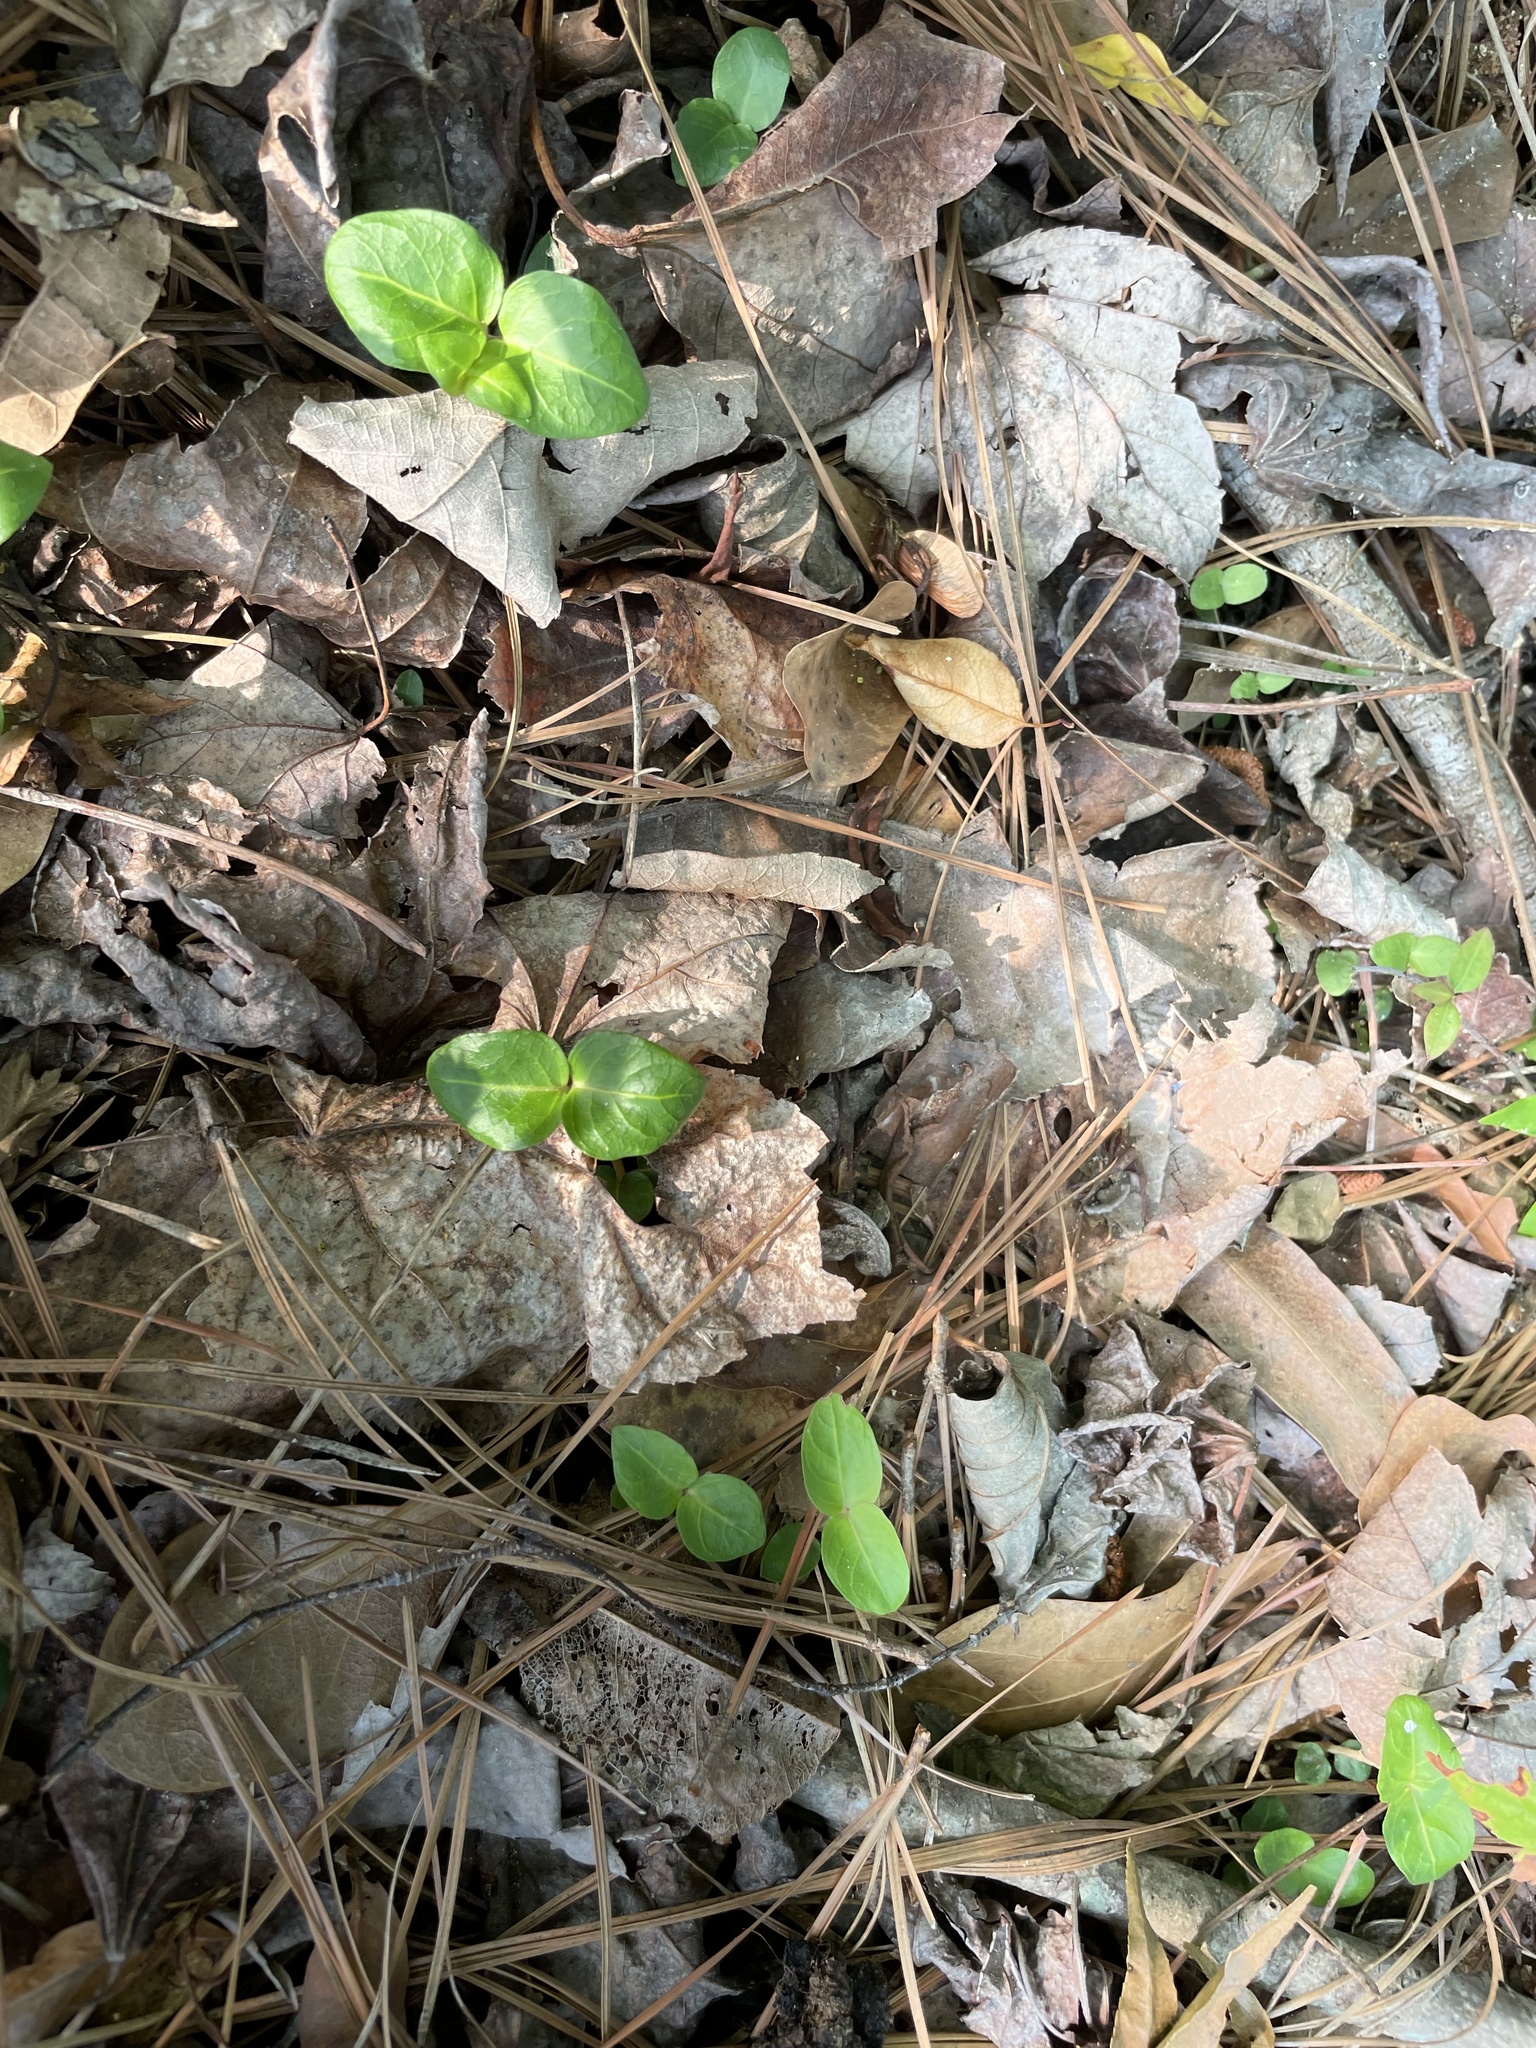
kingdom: Plantae
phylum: Tracheophyta
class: Magnoliopsida
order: Gentianales
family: Rubiaceae
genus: Mitchella
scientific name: Mitchella repens
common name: Partridge-berry
